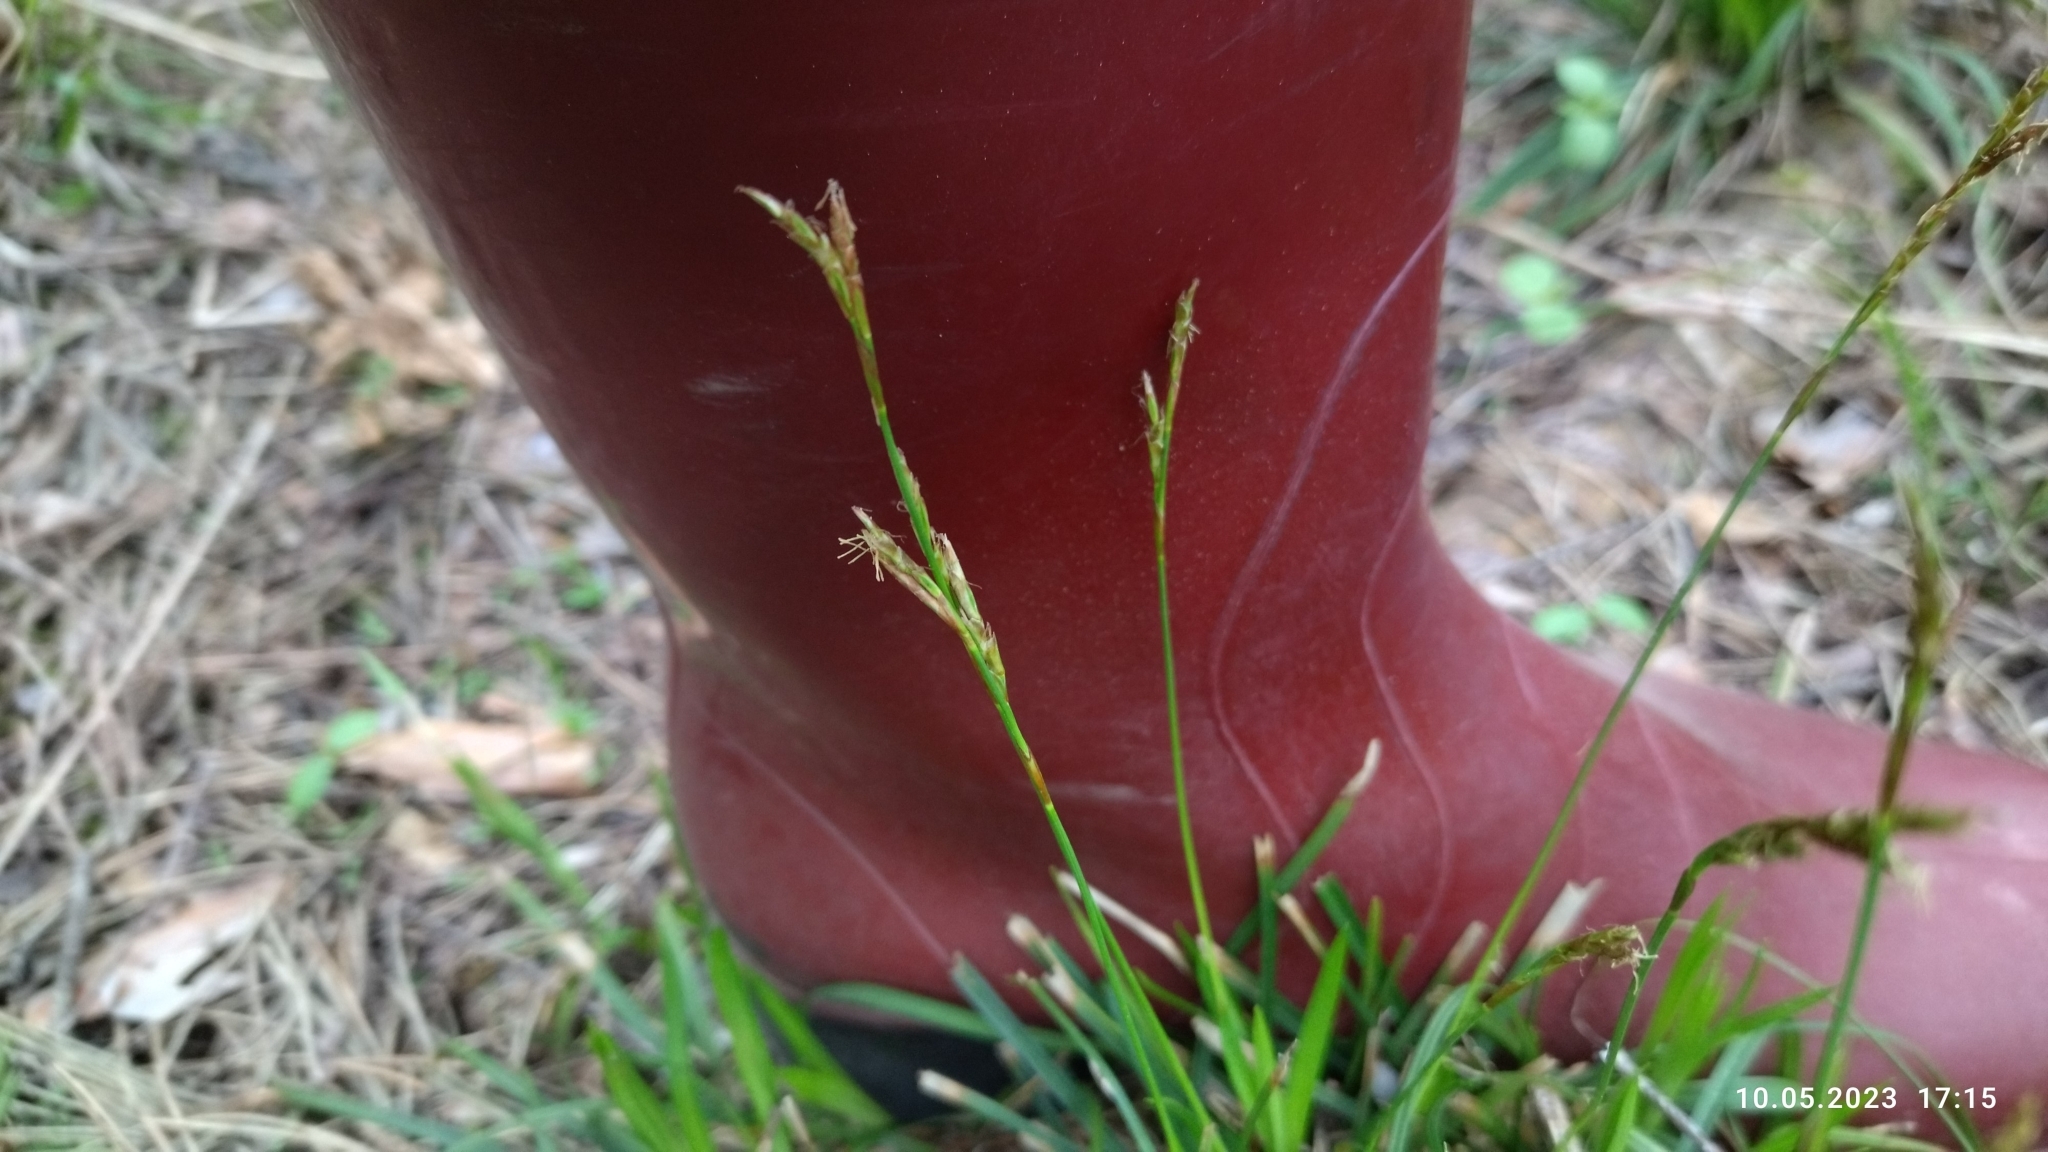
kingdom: Plantae
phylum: Tracheophyta
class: Liliopsida
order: Poales
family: Cyperaceae
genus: Carex
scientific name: Carex digitata
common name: Fingered sedge
